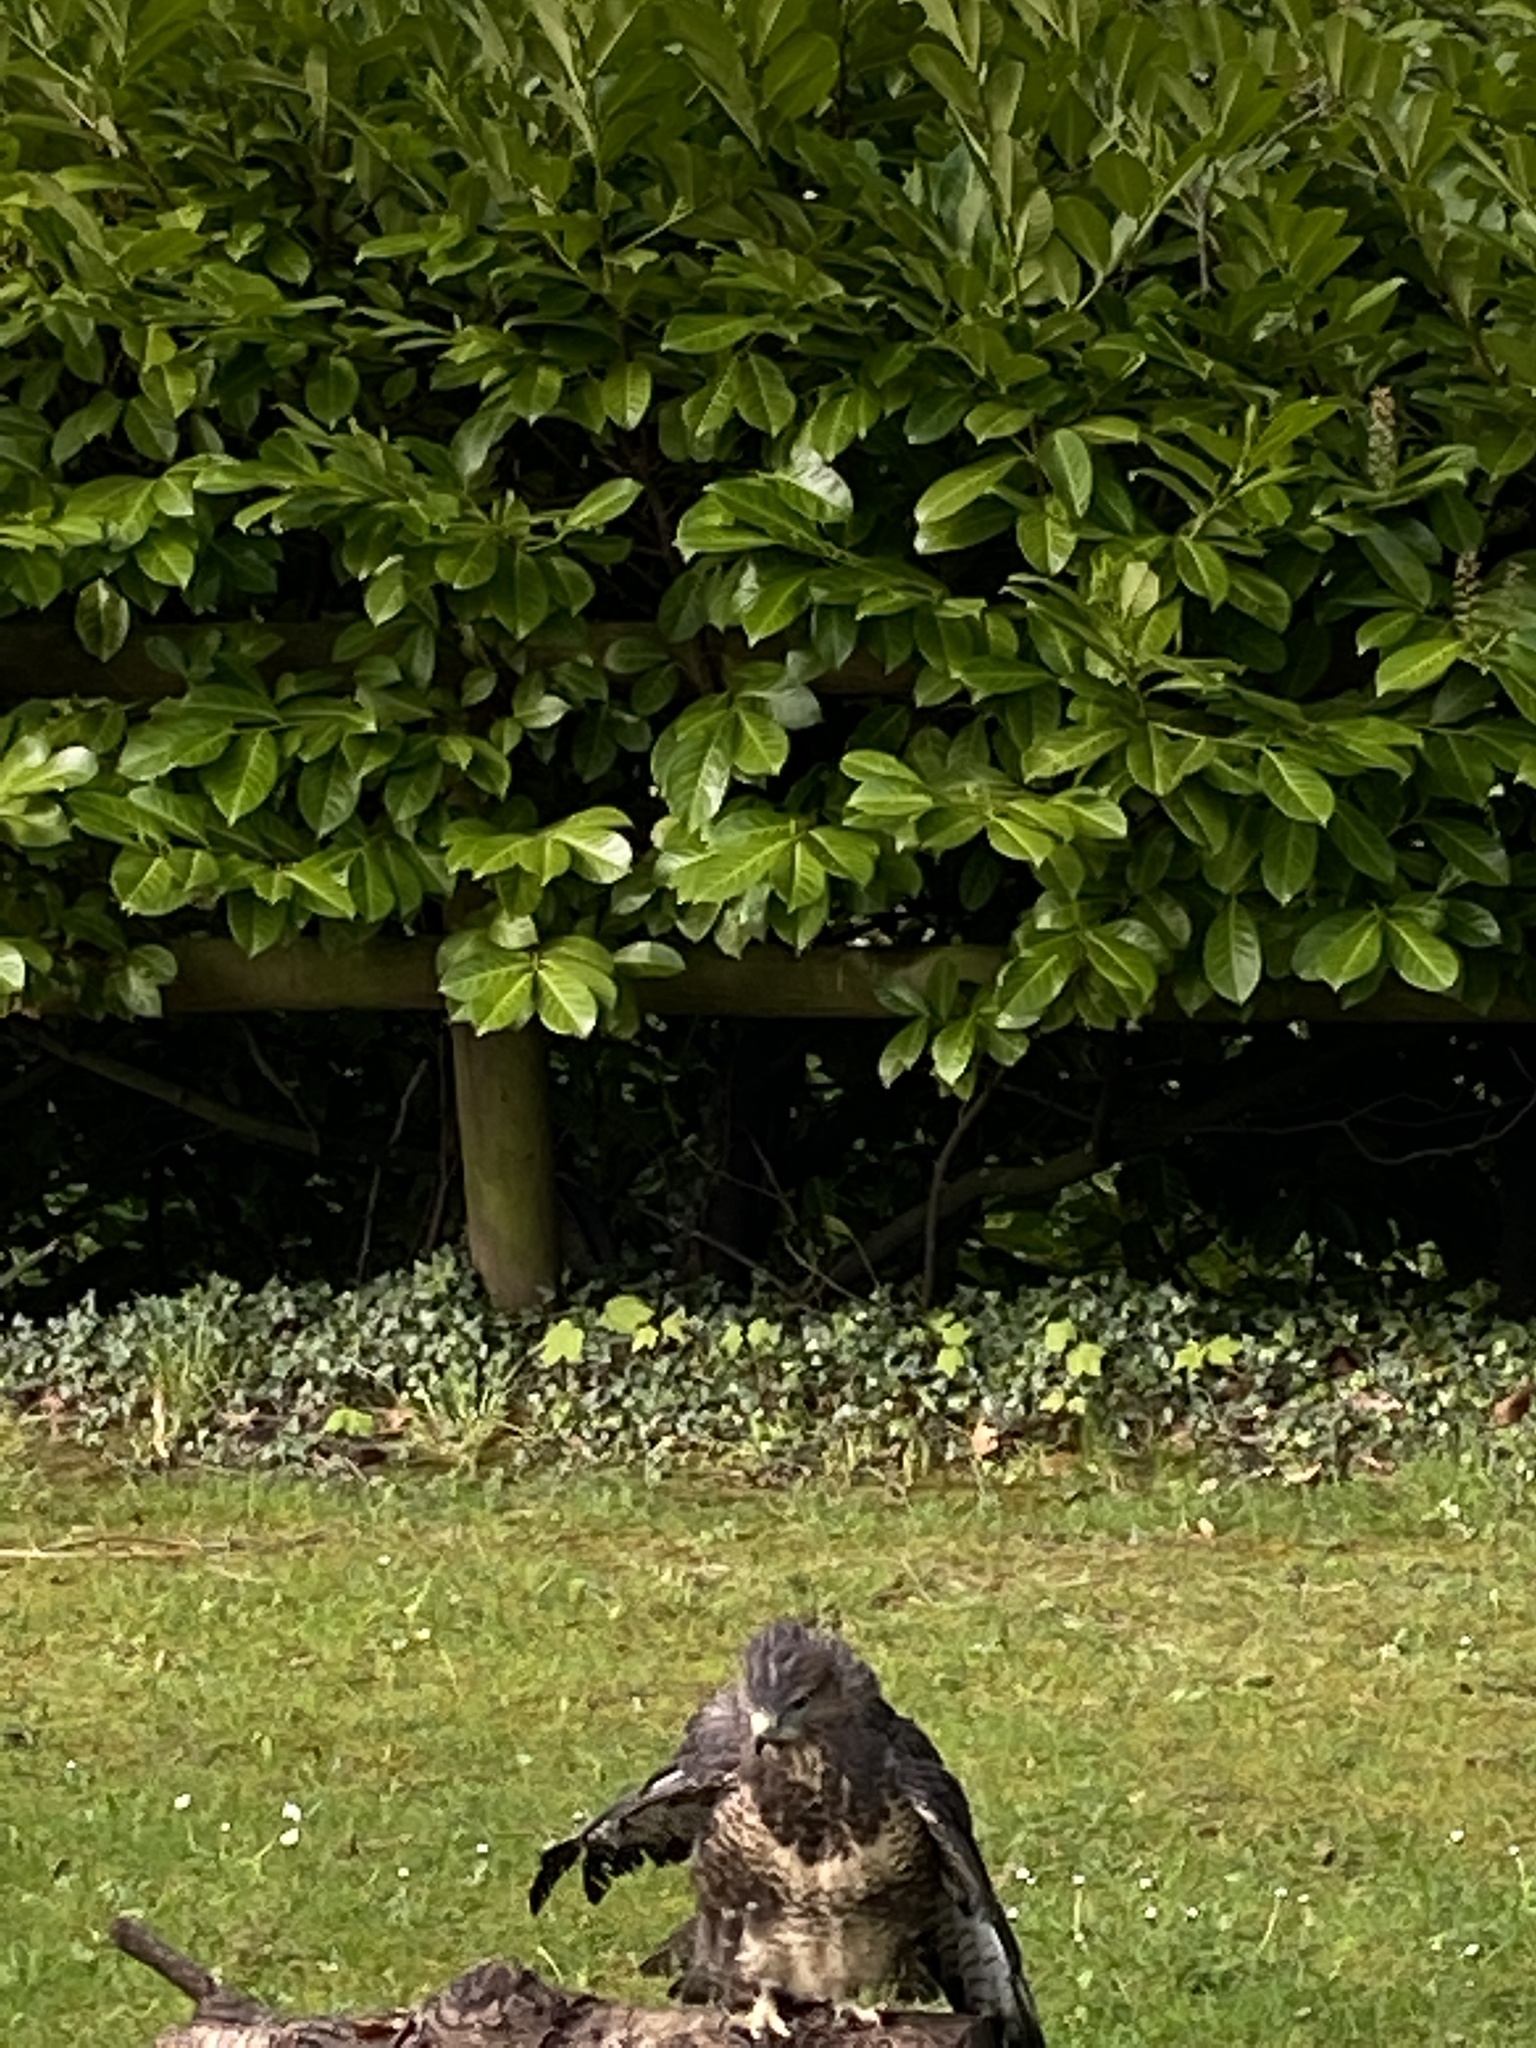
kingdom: Animalia
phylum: Chordata
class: Aves
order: Accipitriformes
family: Accipitridae
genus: Buteo
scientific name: Buteo buteo
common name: Common buzzard
